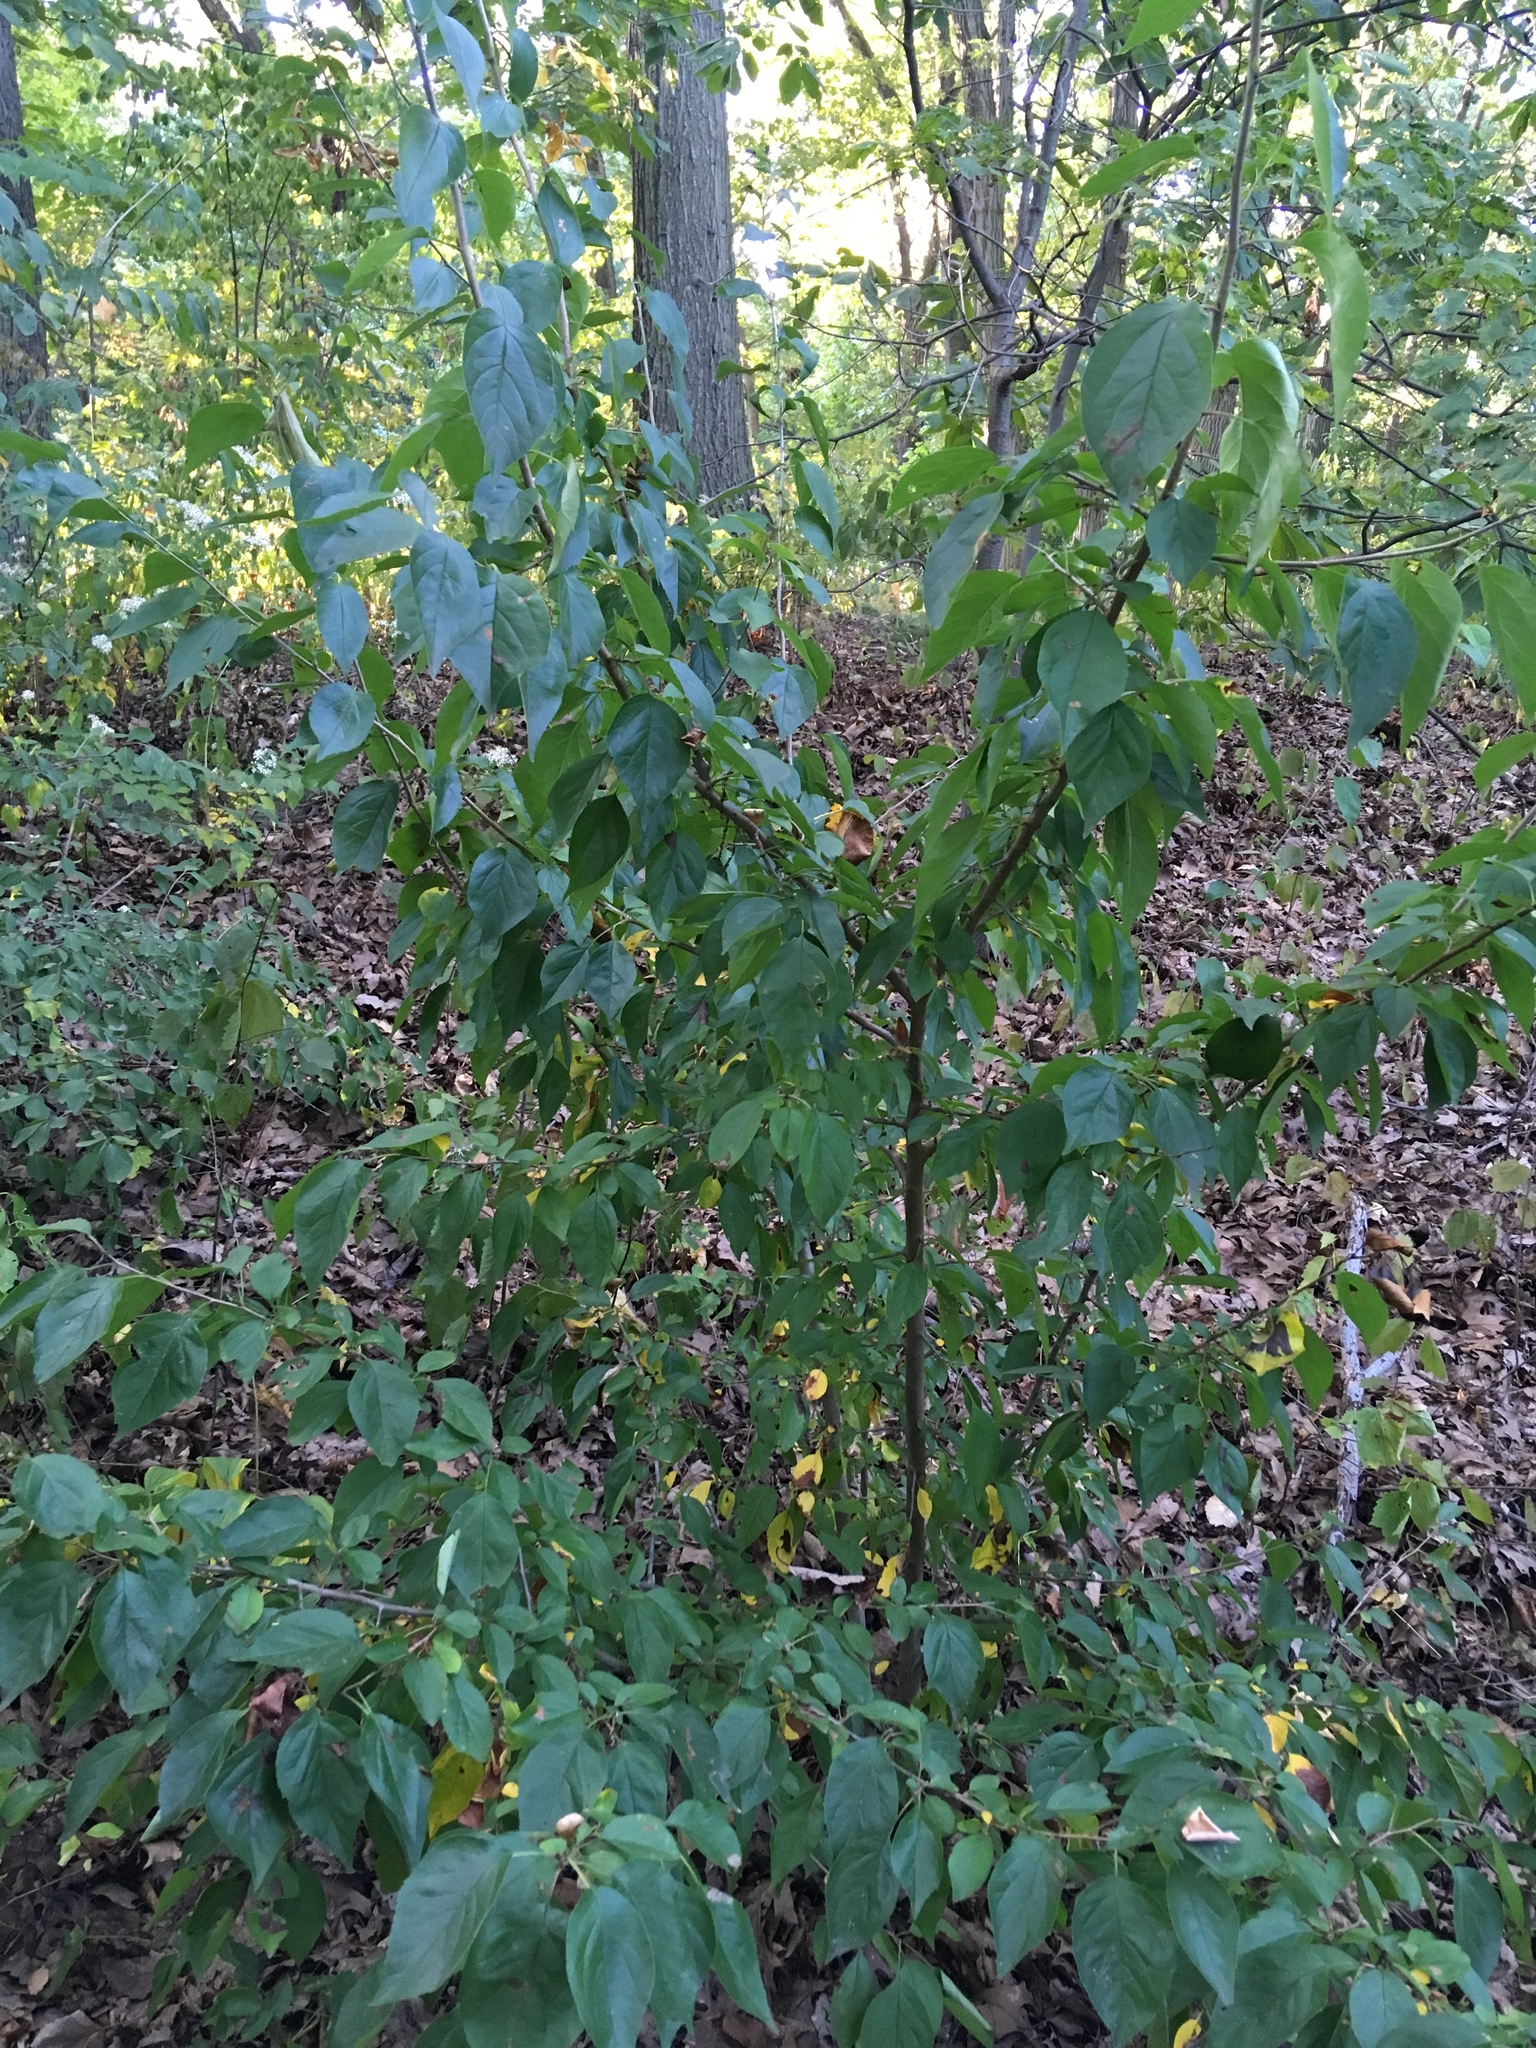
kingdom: Plantae
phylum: Tracheophyta
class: Magnoliopsida
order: Rosales
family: Rosaceae
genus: Malus
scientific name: Malus hupehensis
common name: Chinese crab apple
